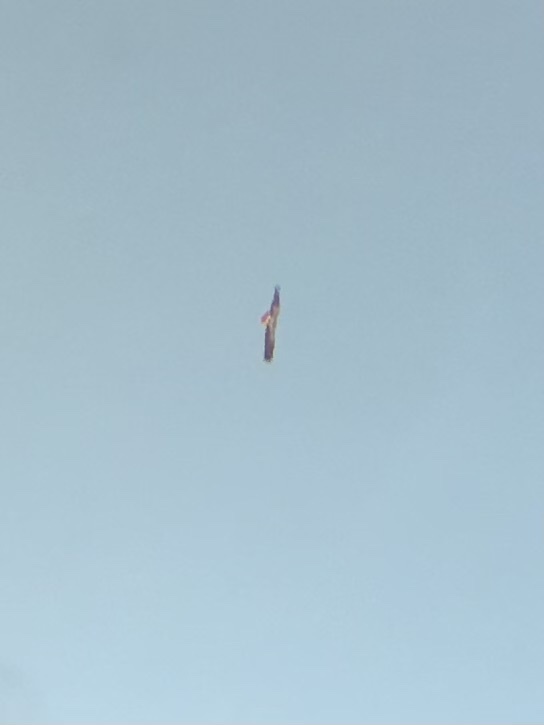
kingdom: Animalia
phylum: Chordata
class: Aves
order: Accipitriformes
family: Accipitridae
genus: Buteo
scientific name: Buteo jamaicensis
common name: Red-tailed hawk
